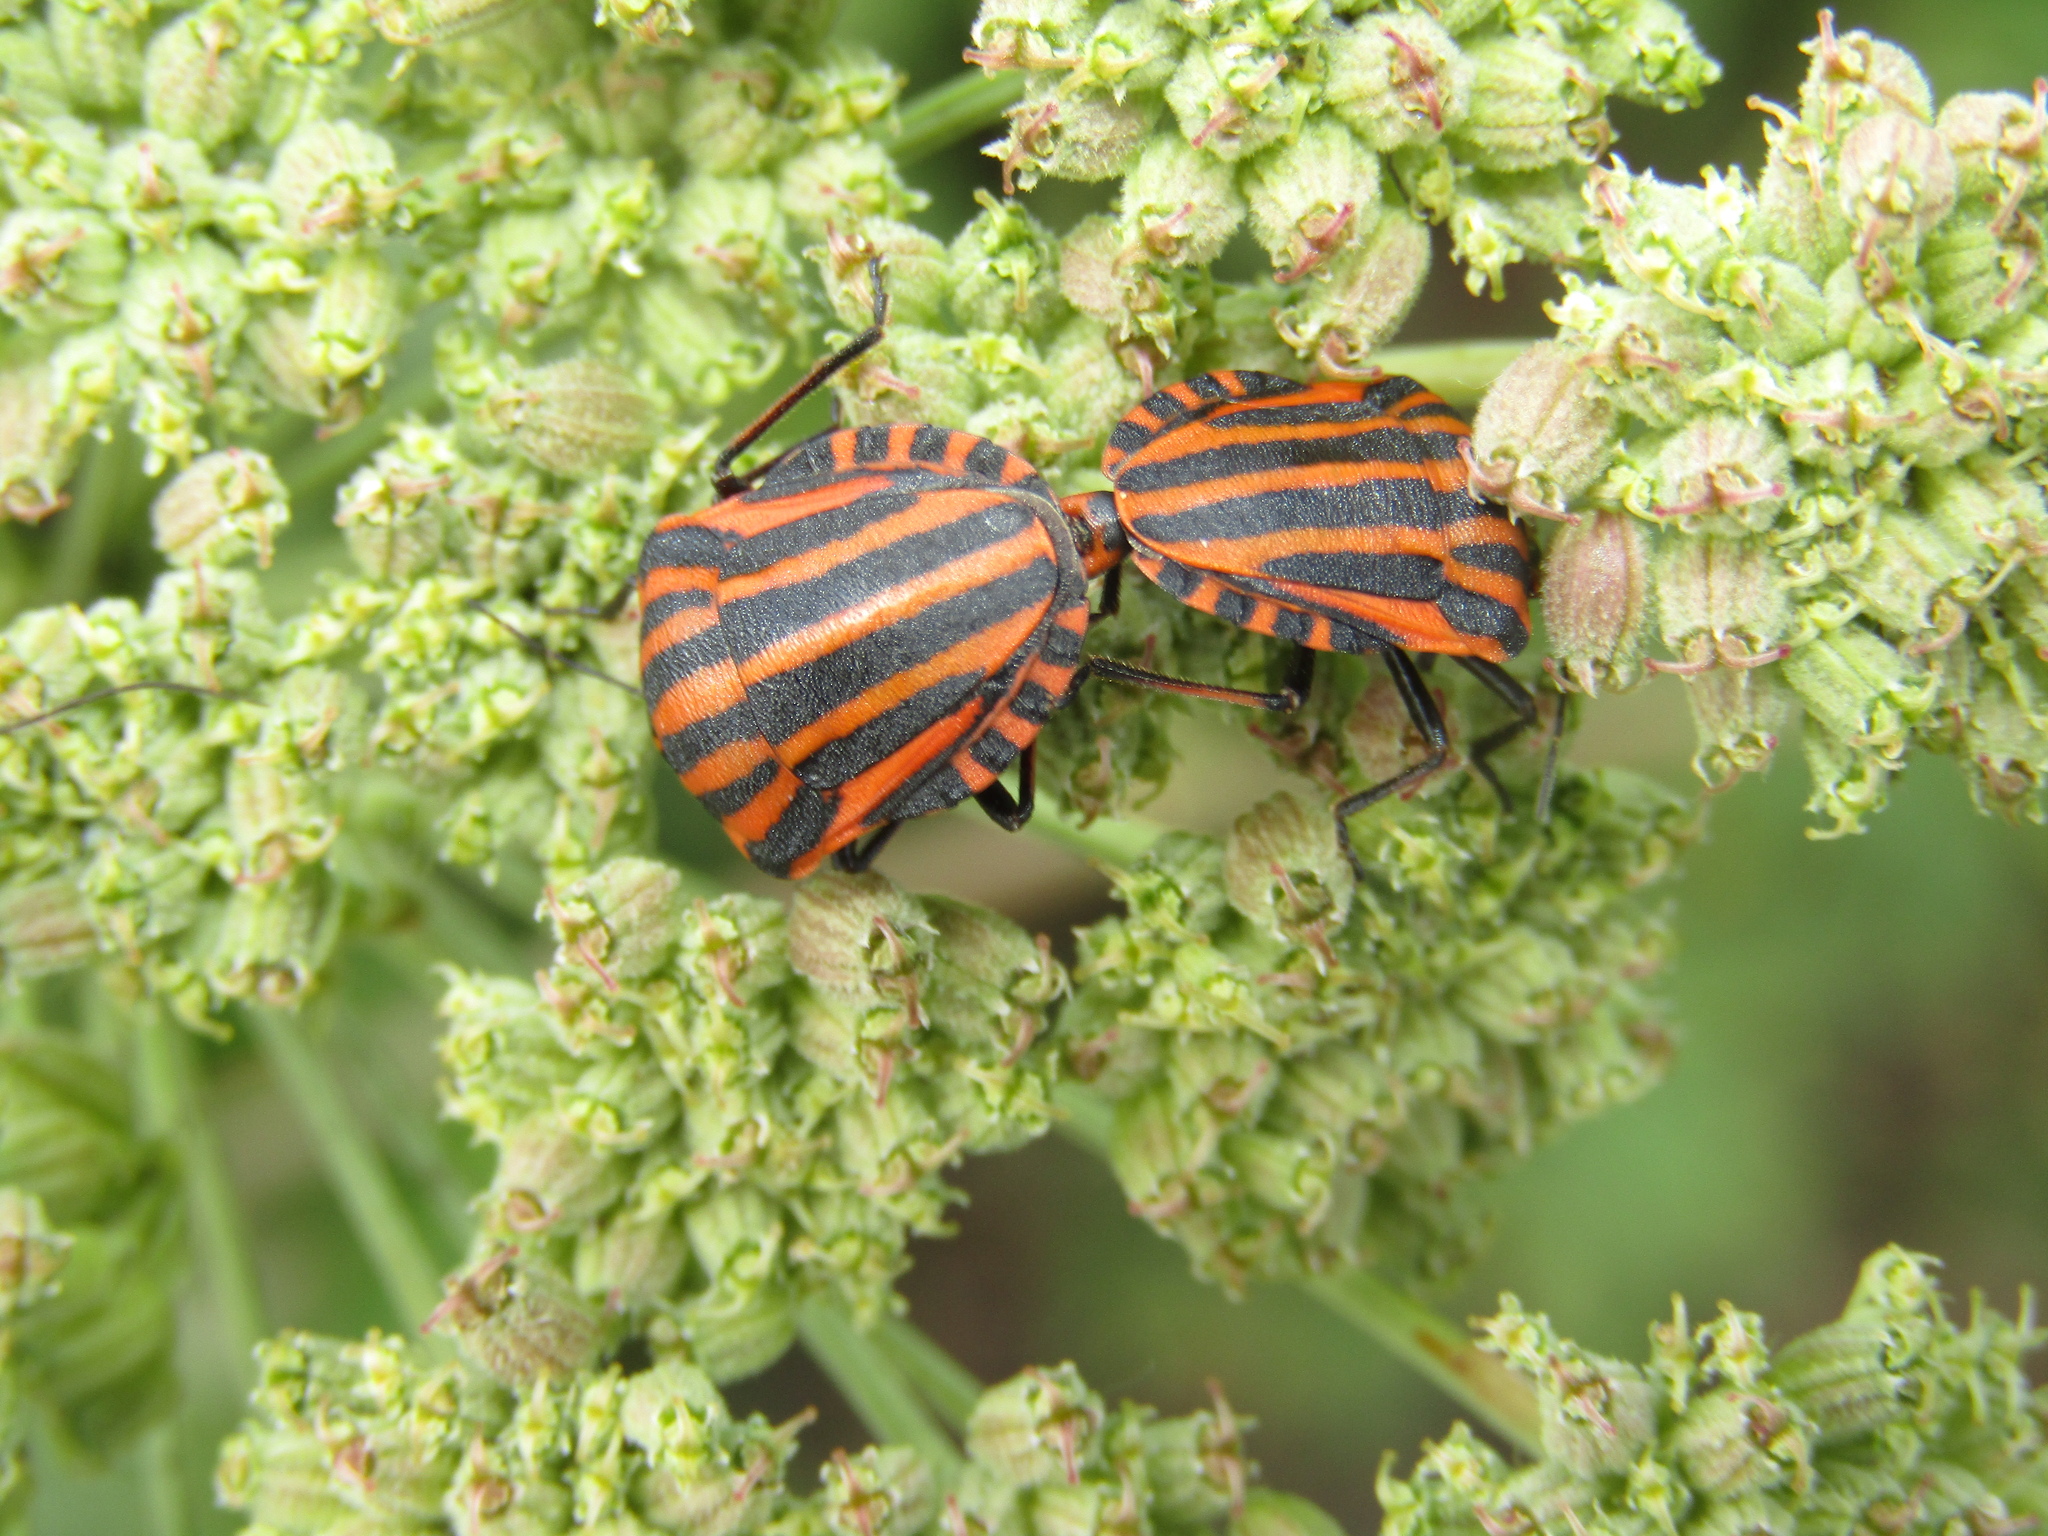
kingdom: Animalia
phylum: Arthropoda
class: Insecta
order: Hemiptera
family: Pentatomidae
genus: Graphosoma
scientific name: Graphosoma italicum
